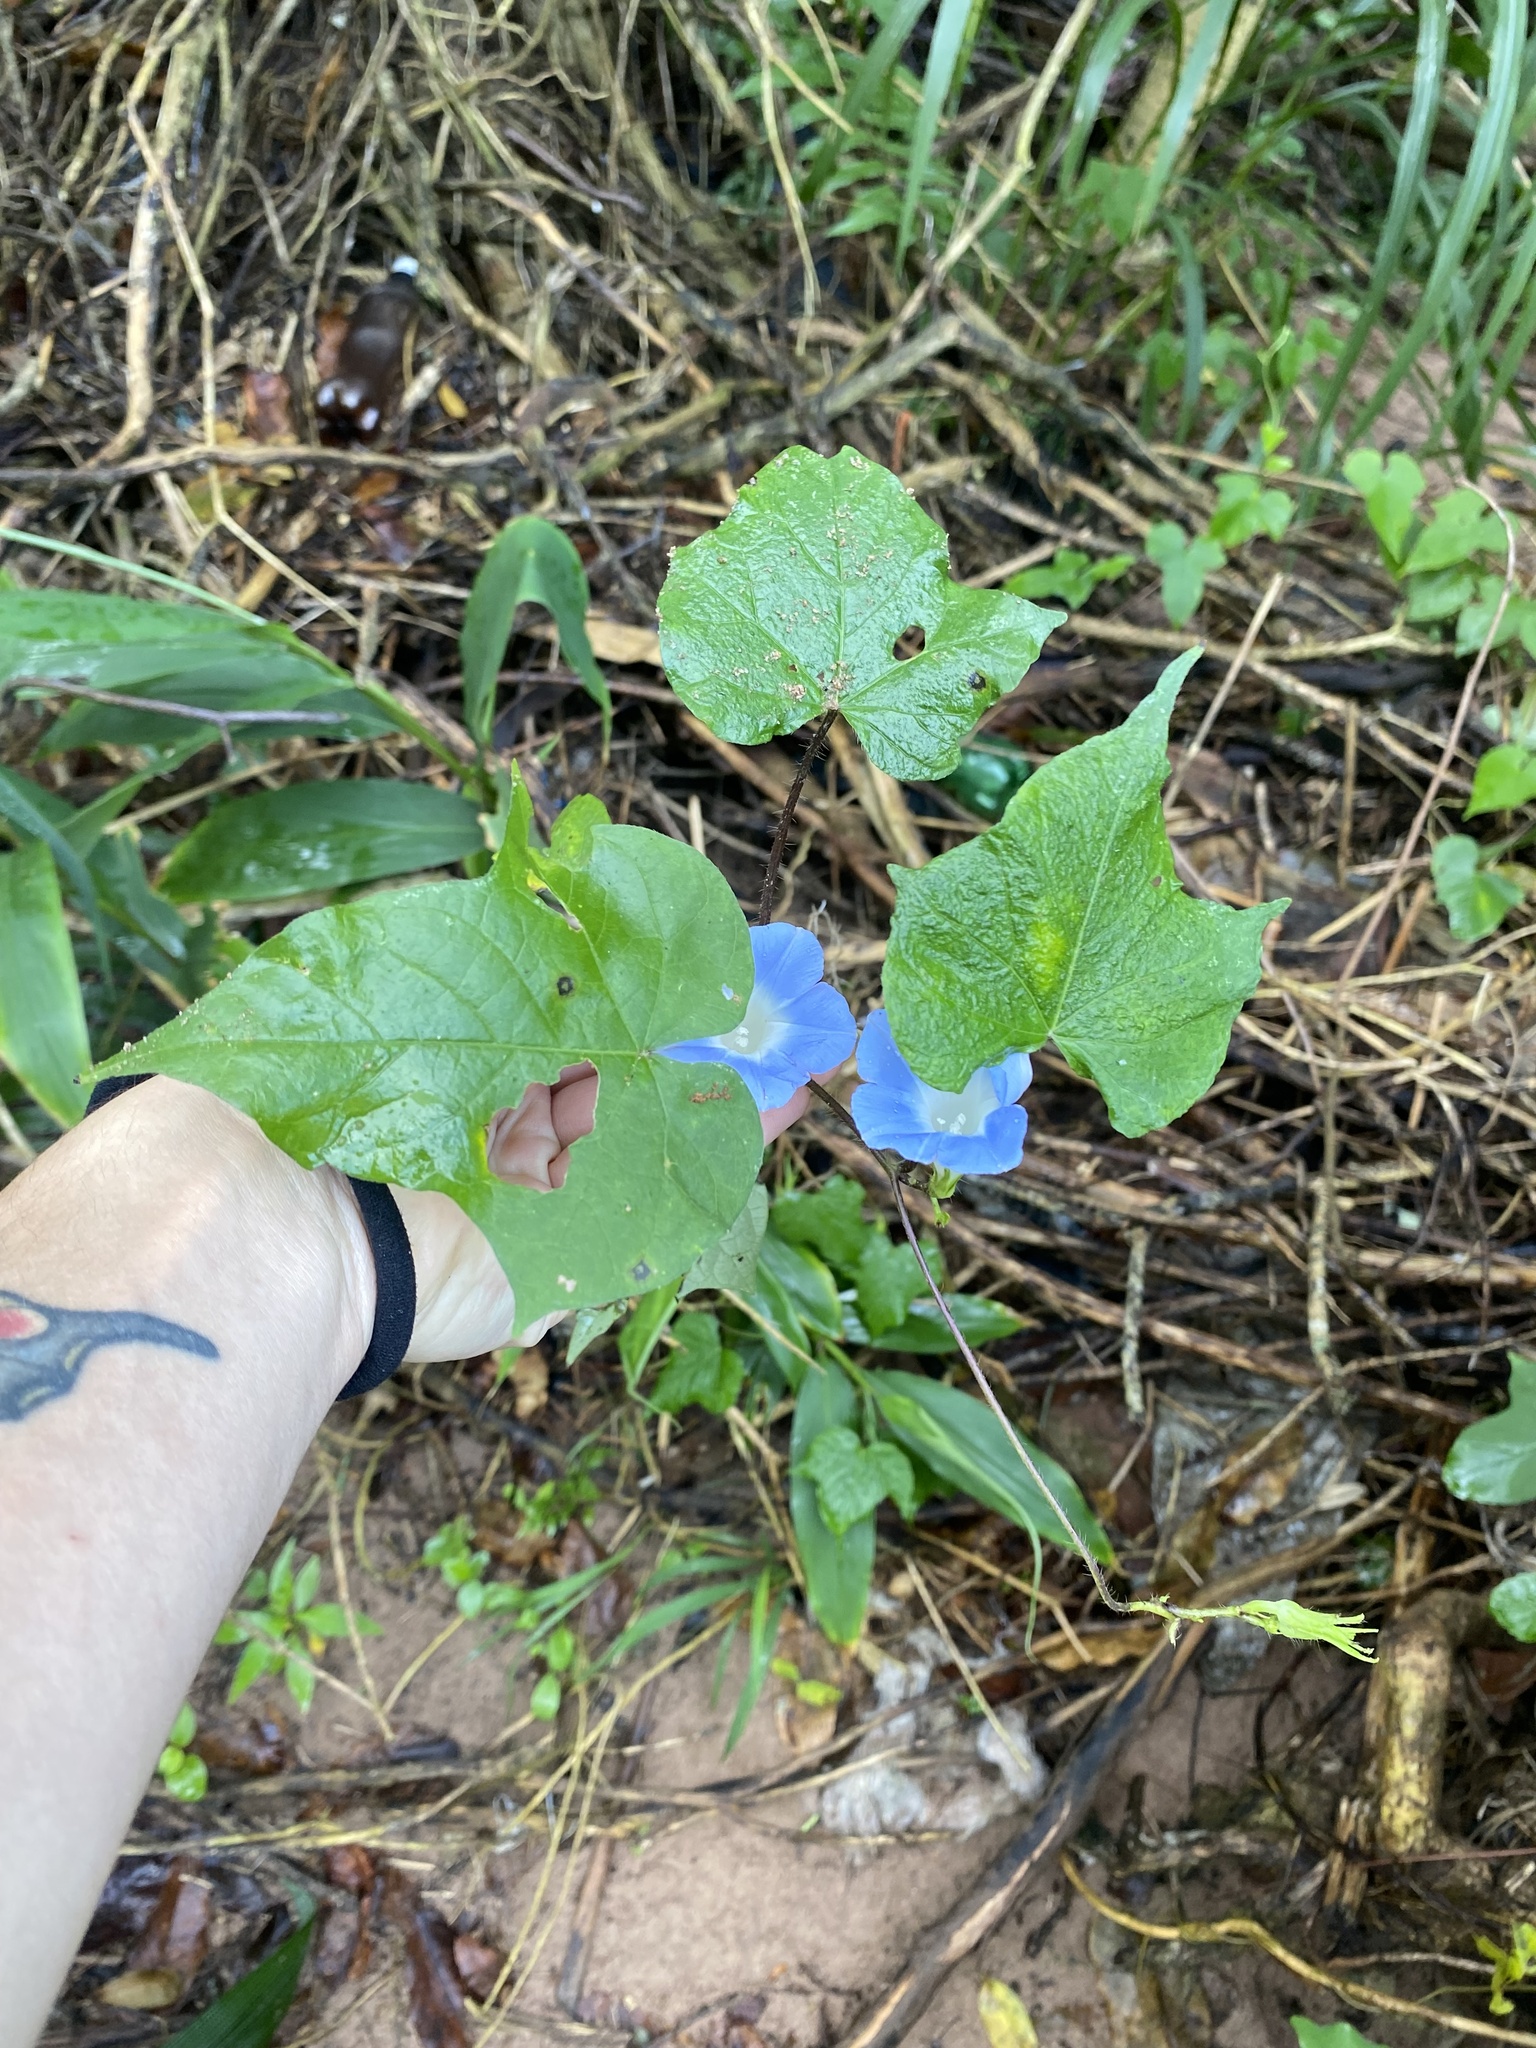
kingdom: Plantae
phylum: Tracheophyta
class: Magnoliopsida
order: Solanales
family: Convolvulaceae
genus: Ipomoea
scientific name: Ipomoea nil
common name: Japanese morning-glory
